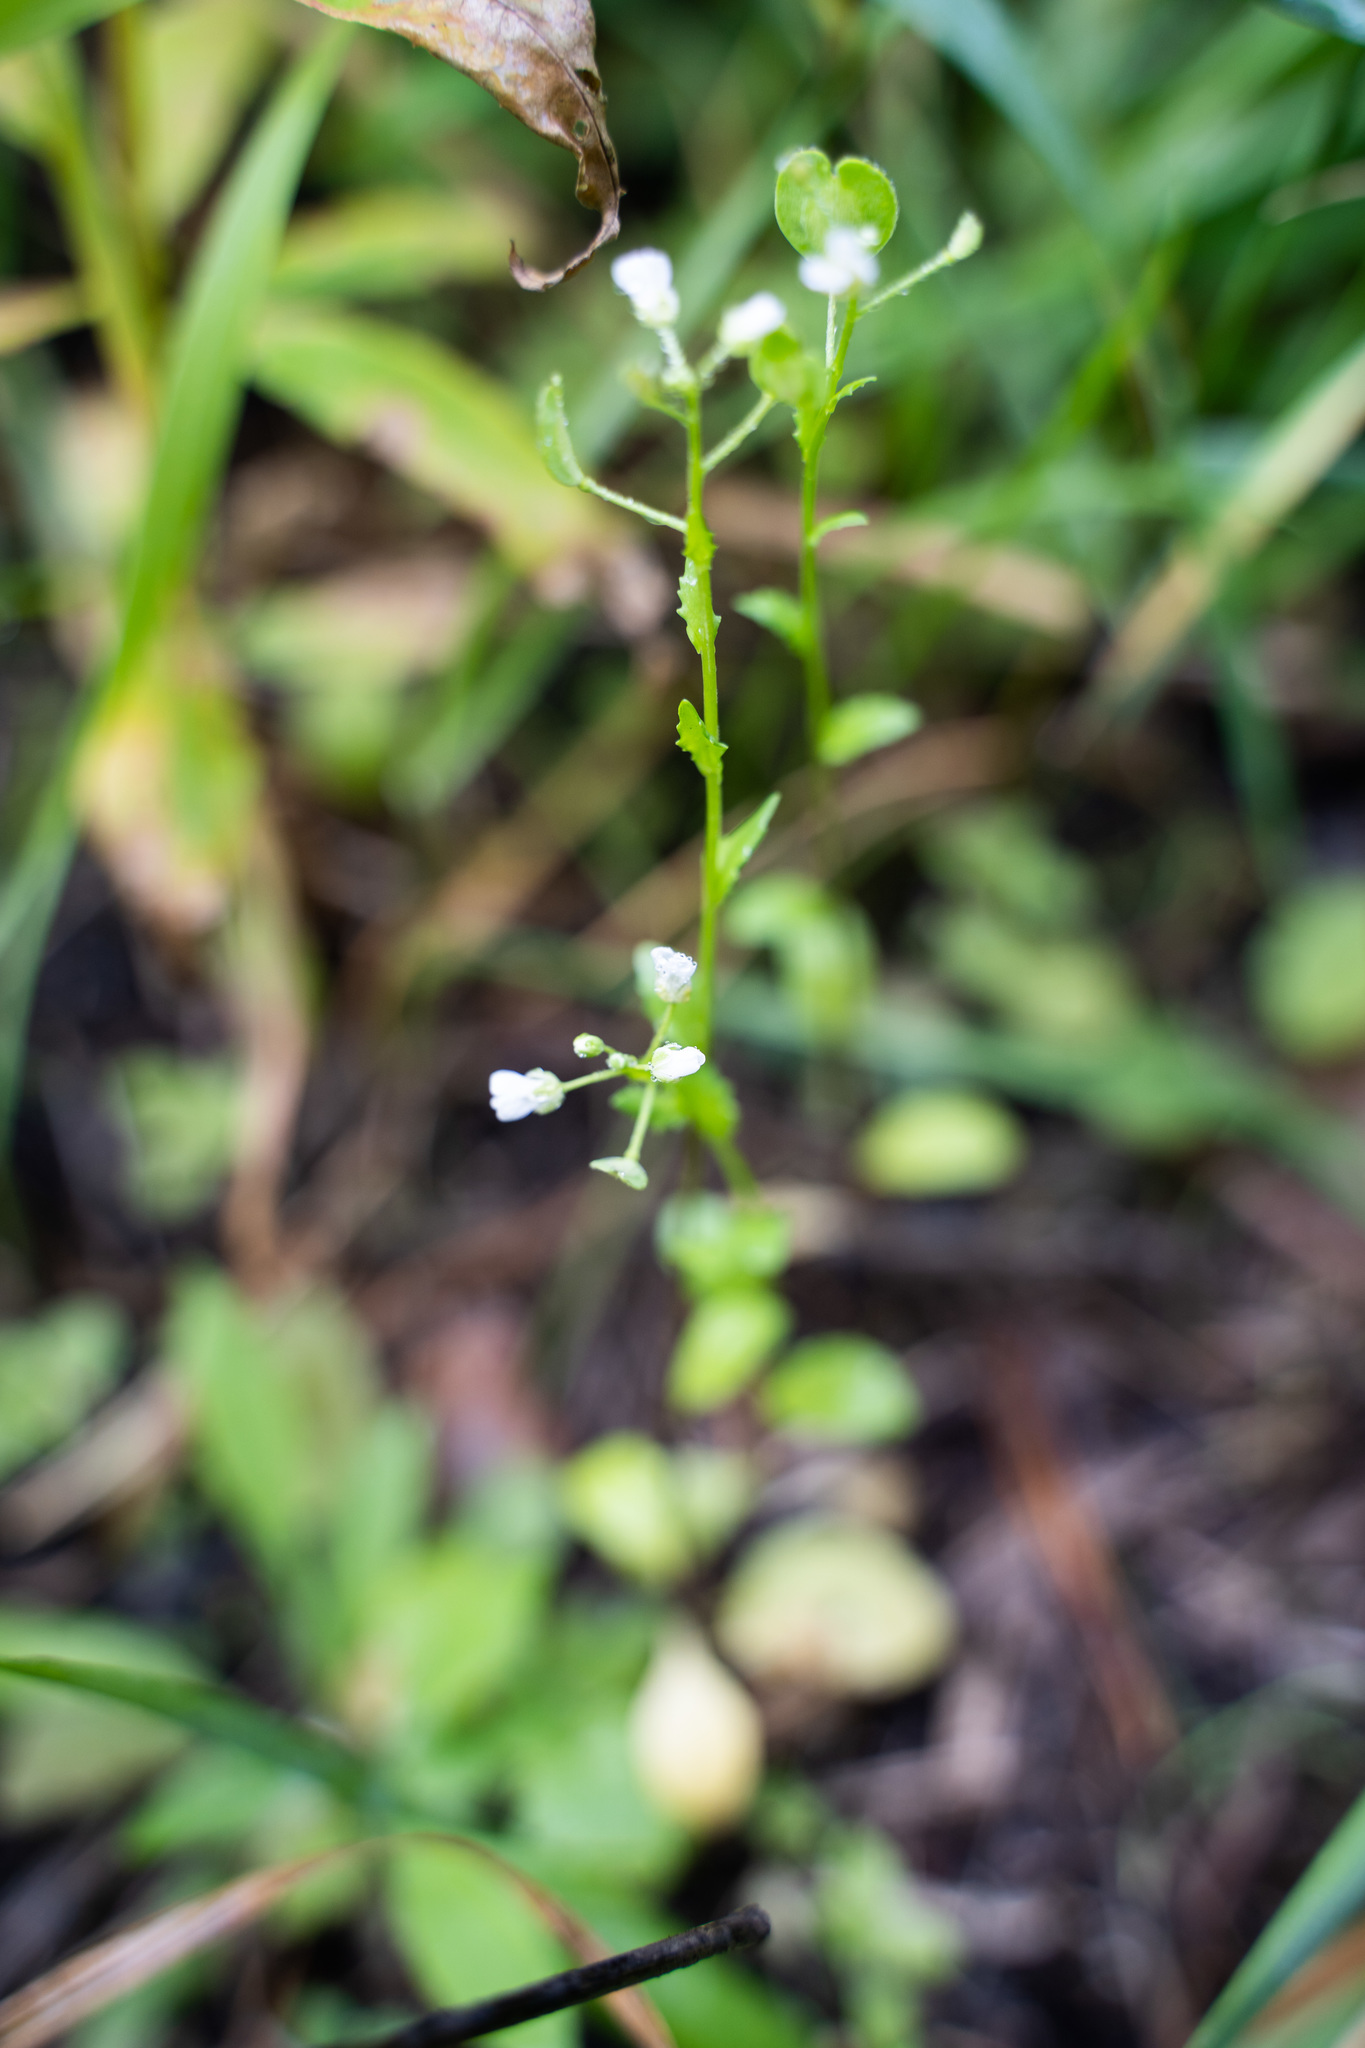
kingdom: Plantae
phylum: Tracheophyta
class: Magnoliopsida
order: Brassicales
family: Brassicaceae
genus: Thlaspi
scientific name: Thlaspi arvense
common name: Field pennycress
